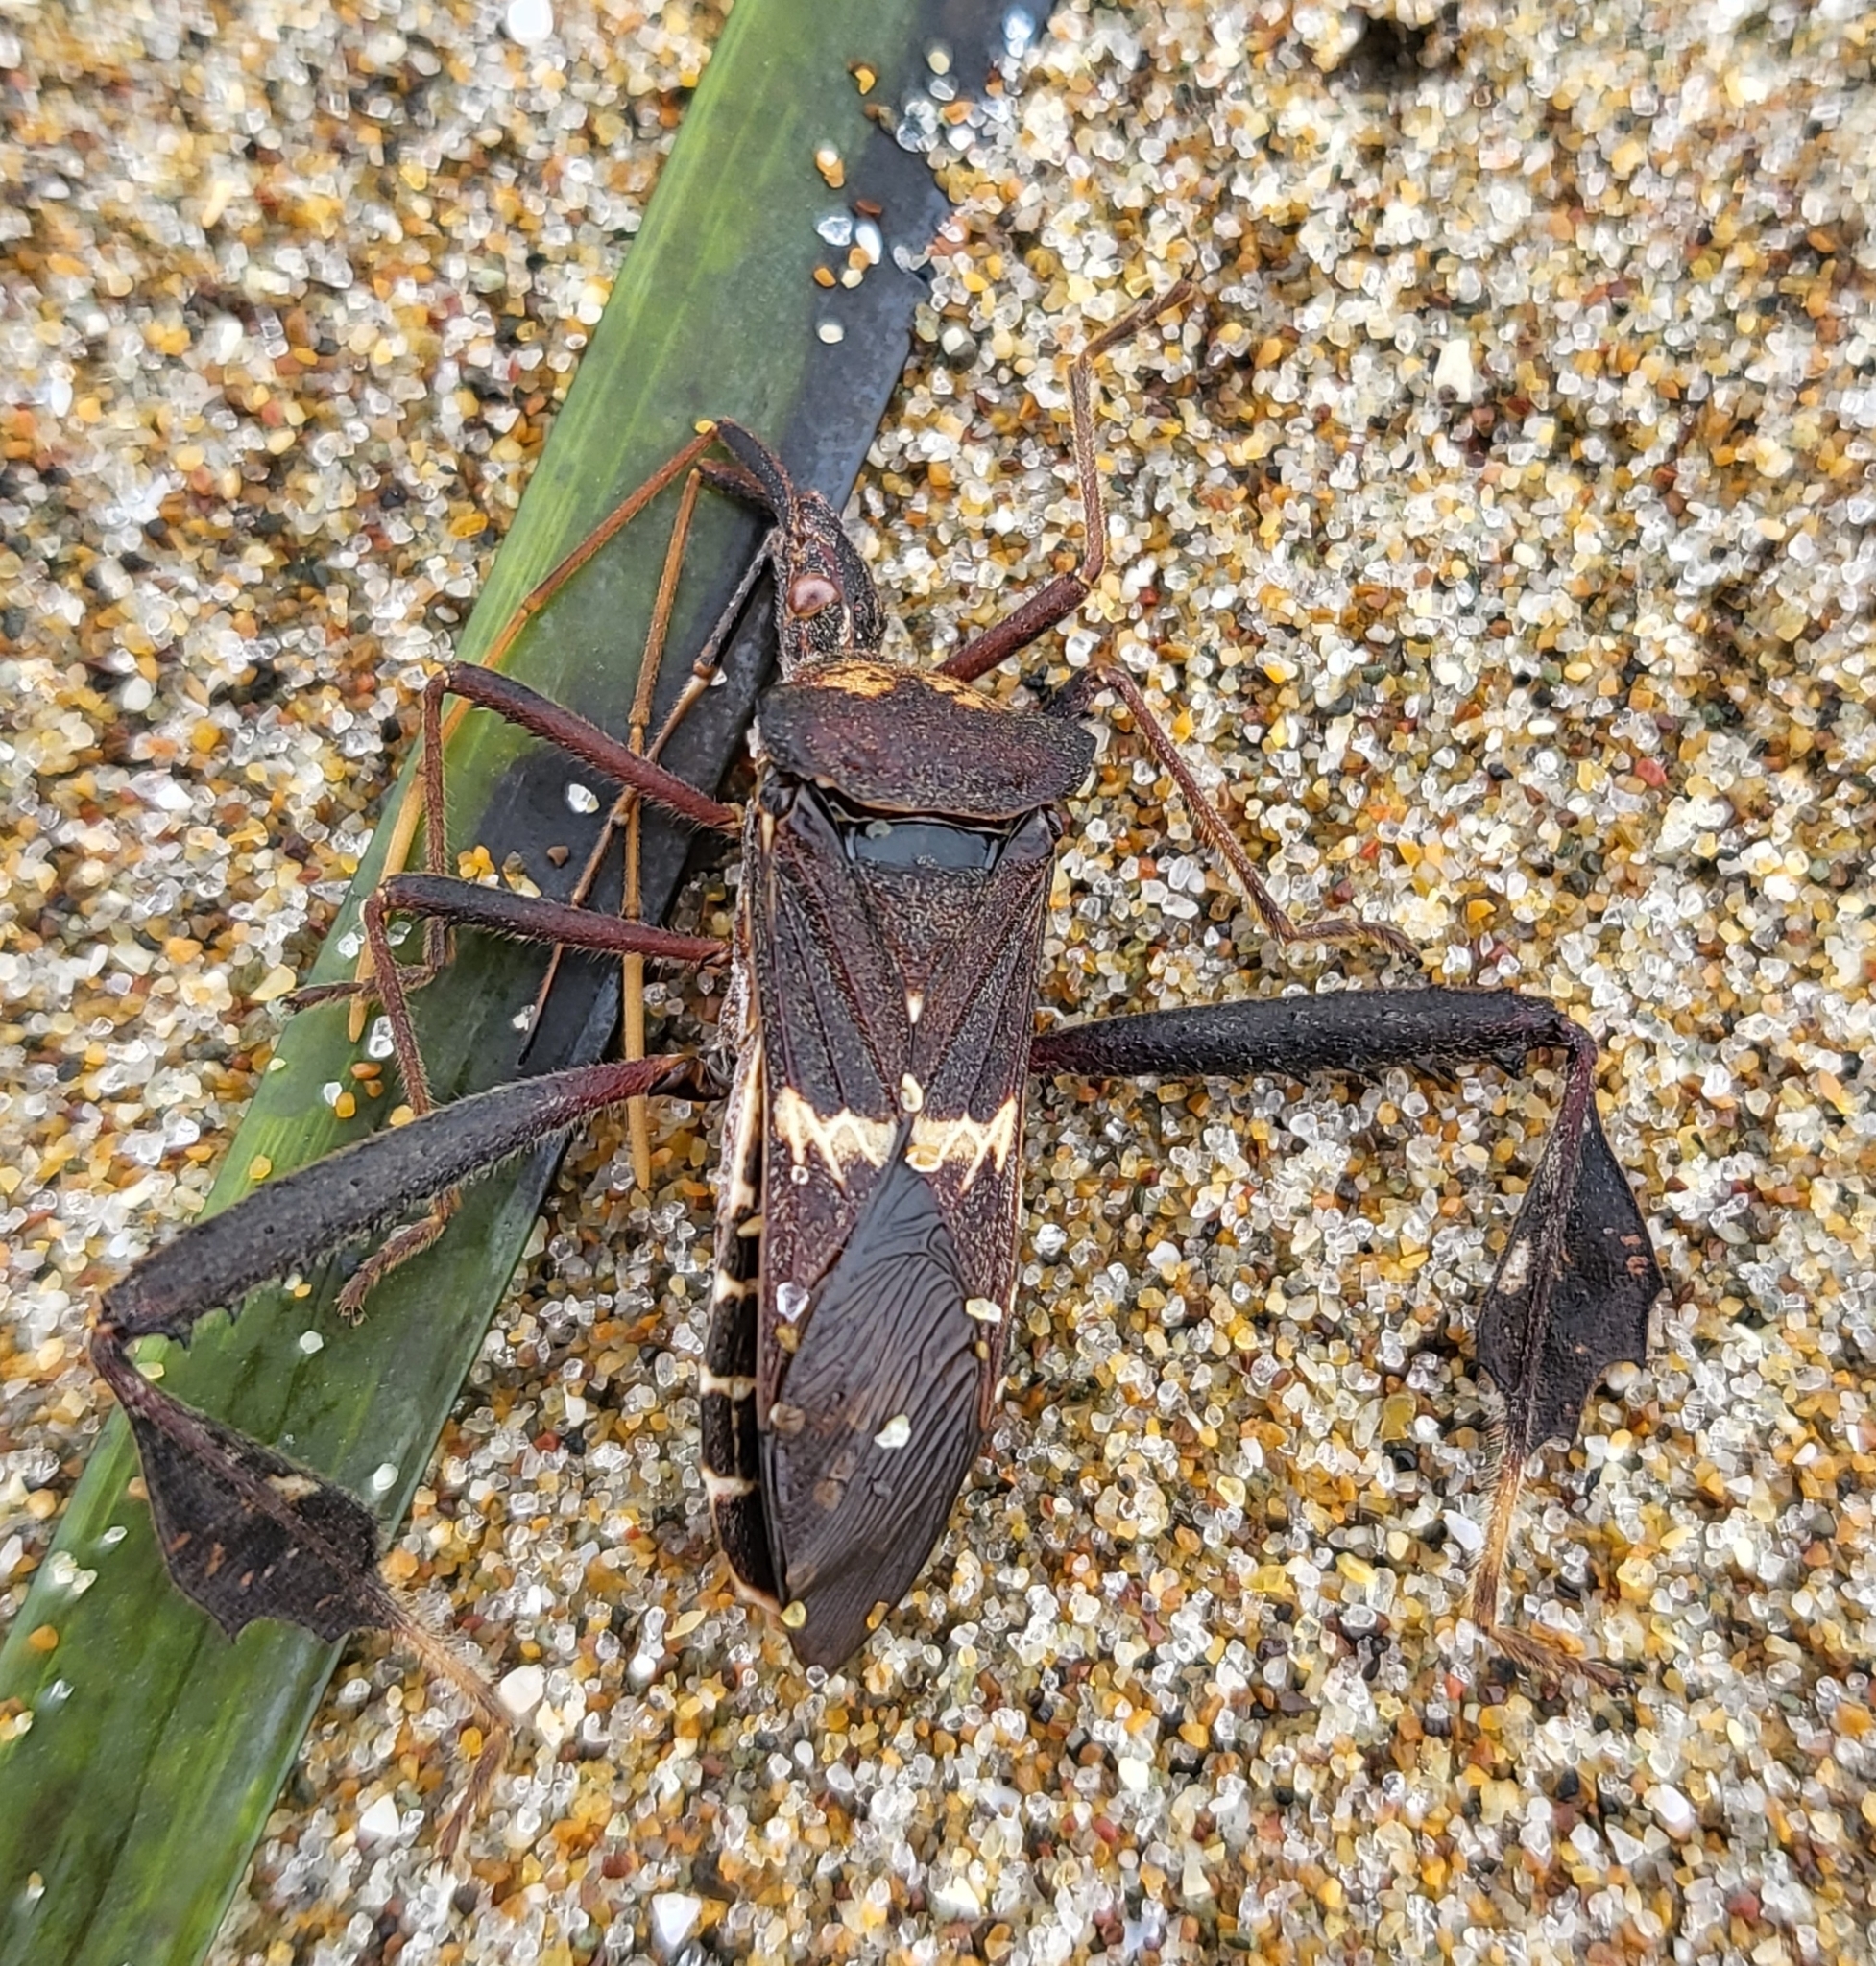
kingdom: Animalia
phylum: Arthropoda
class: Insecta
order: Hemiptera
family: Coreidae
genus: Leptoglossus
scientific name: Leptoglossus zonatus
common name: Large-legged bug
